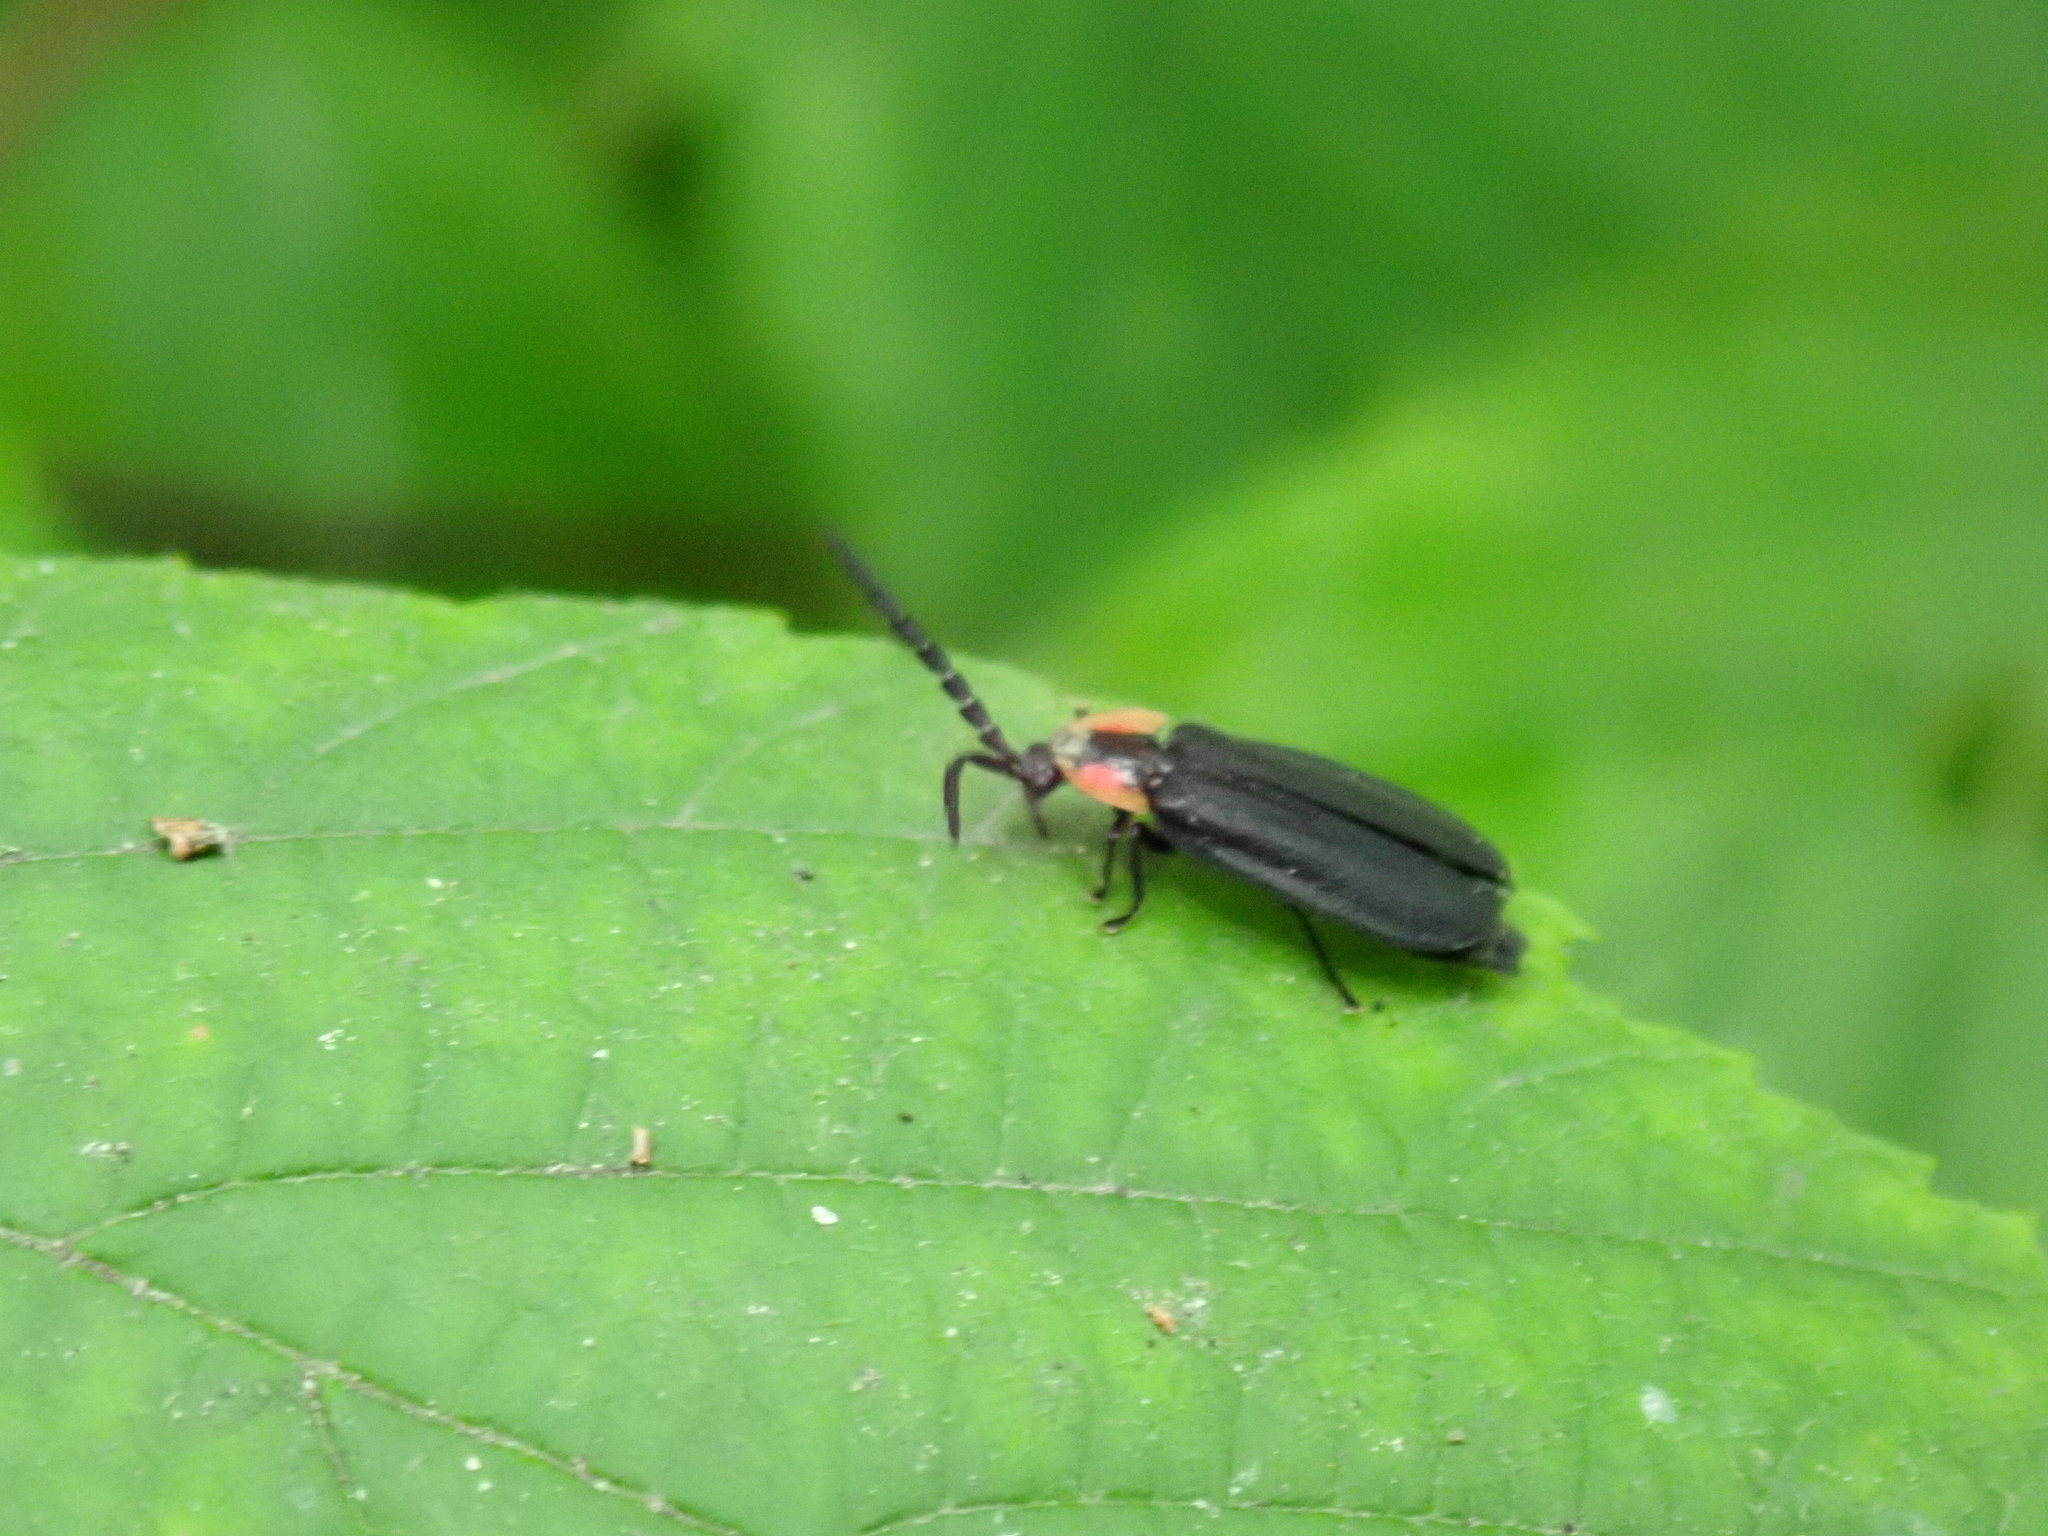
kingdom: Animalia
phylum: Arthropoda
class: Insecta
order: Coleoptera
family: Lampyridae
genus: Lucidota
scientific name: Lucidota atra
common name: Black firefly
